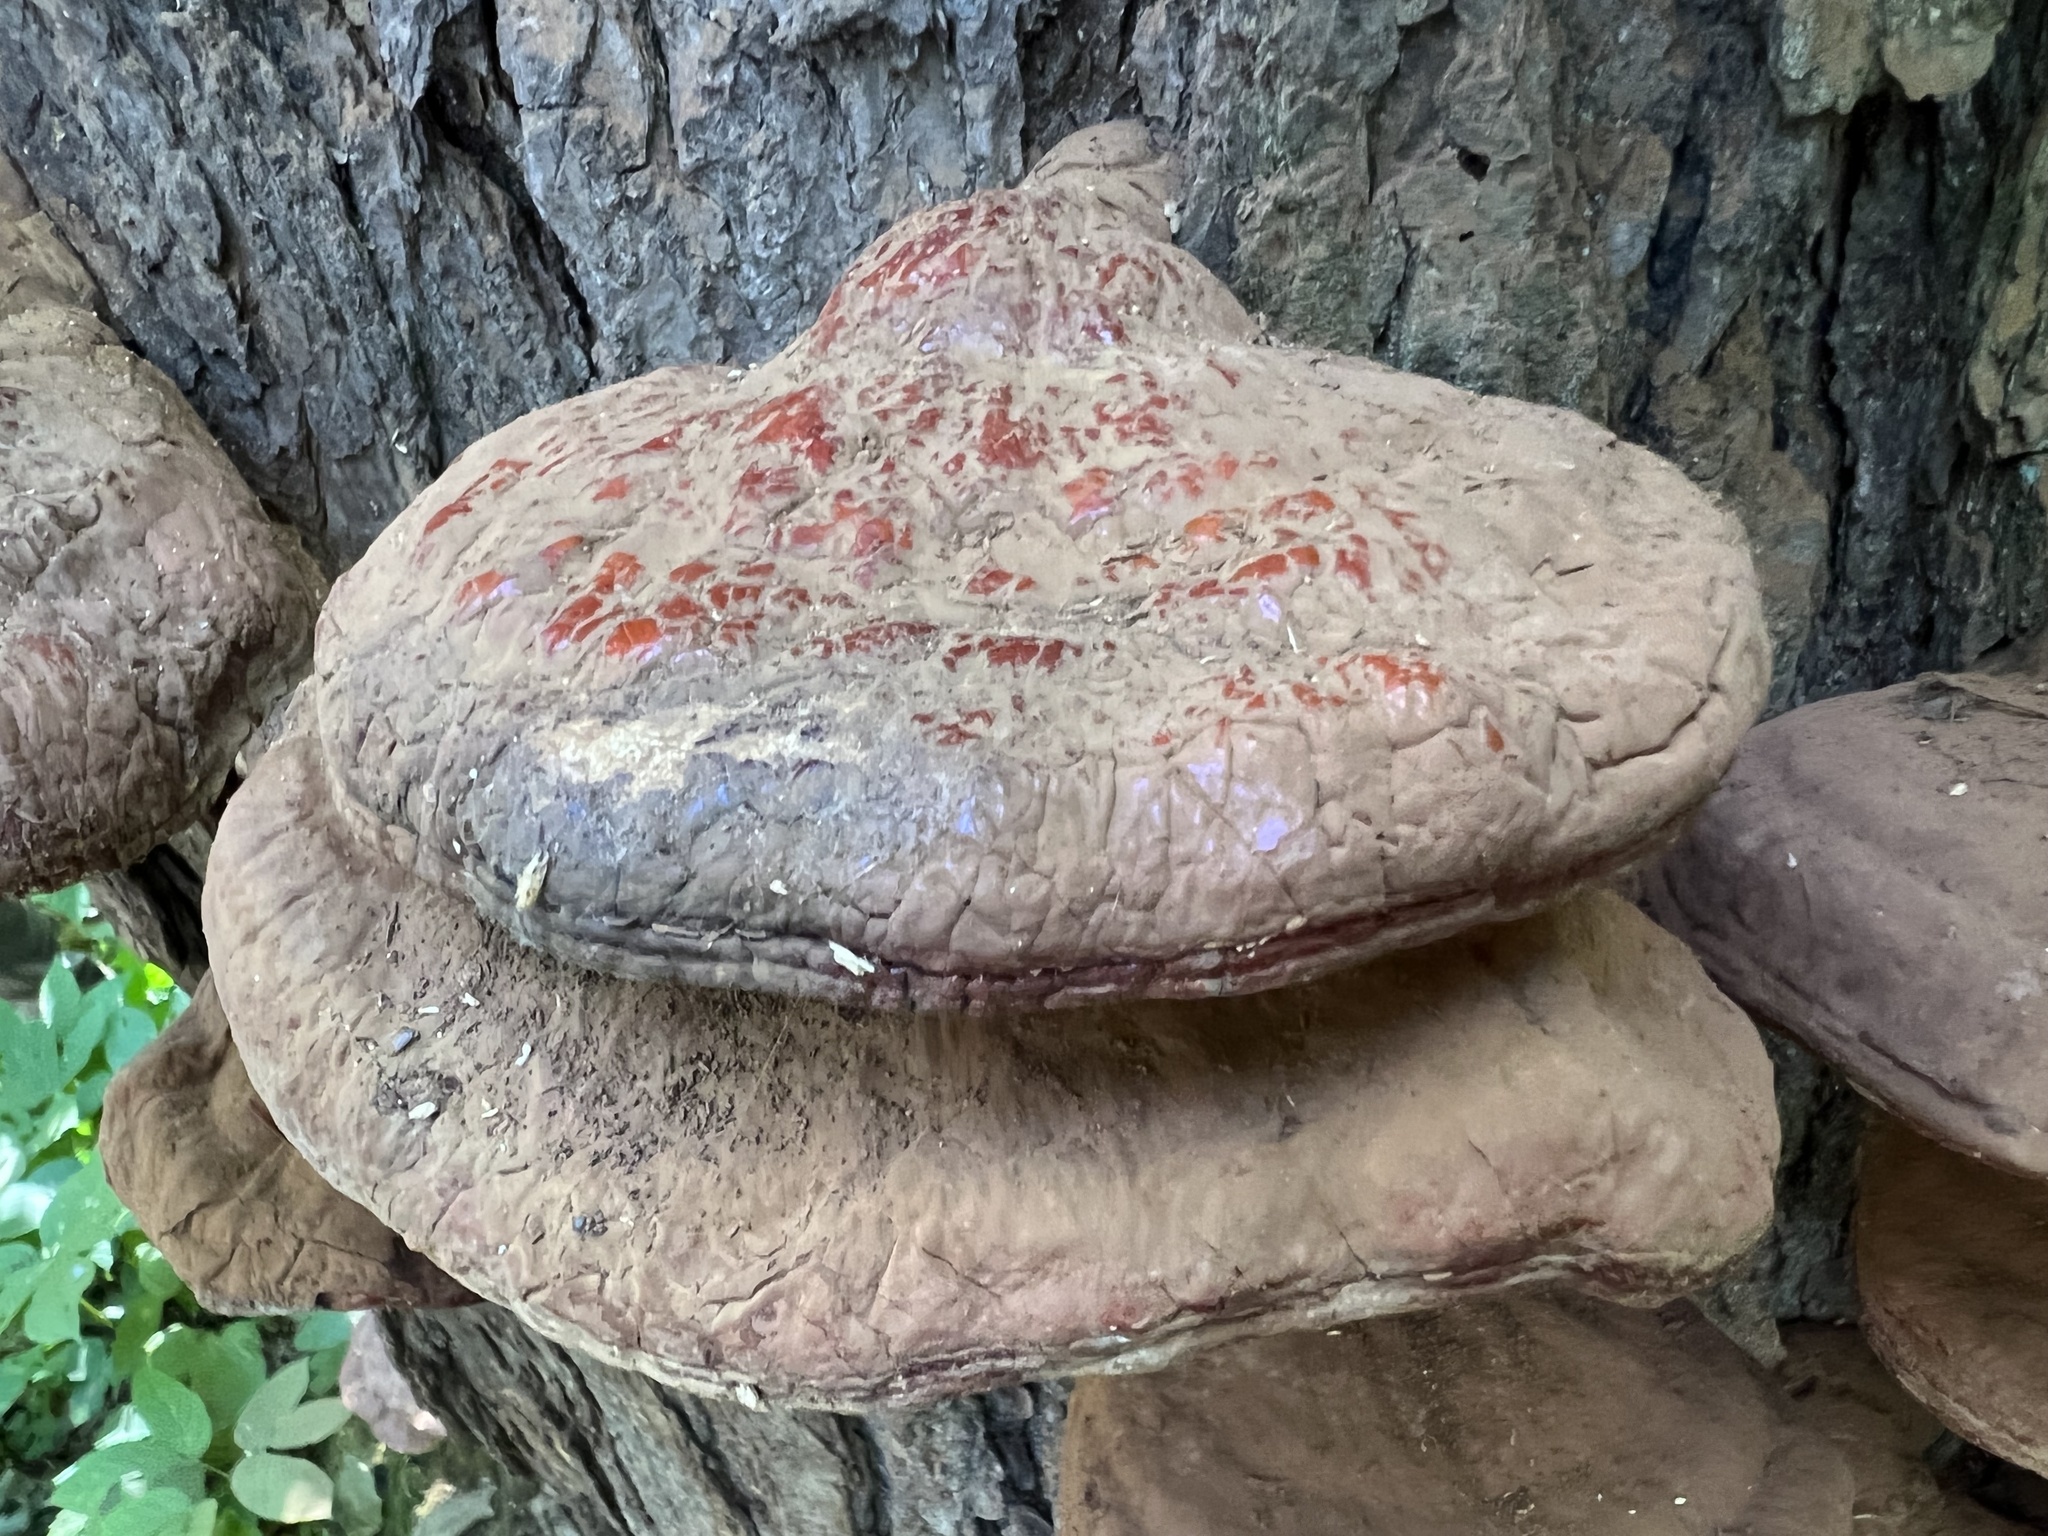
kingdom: Fungi
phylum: Basidiomycota
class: Agaricomycetes
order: Polyporales
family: Polyporaceae
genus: Ganoderma
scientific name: Ganoderma tsugae
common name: Hemlock varnish shelf
